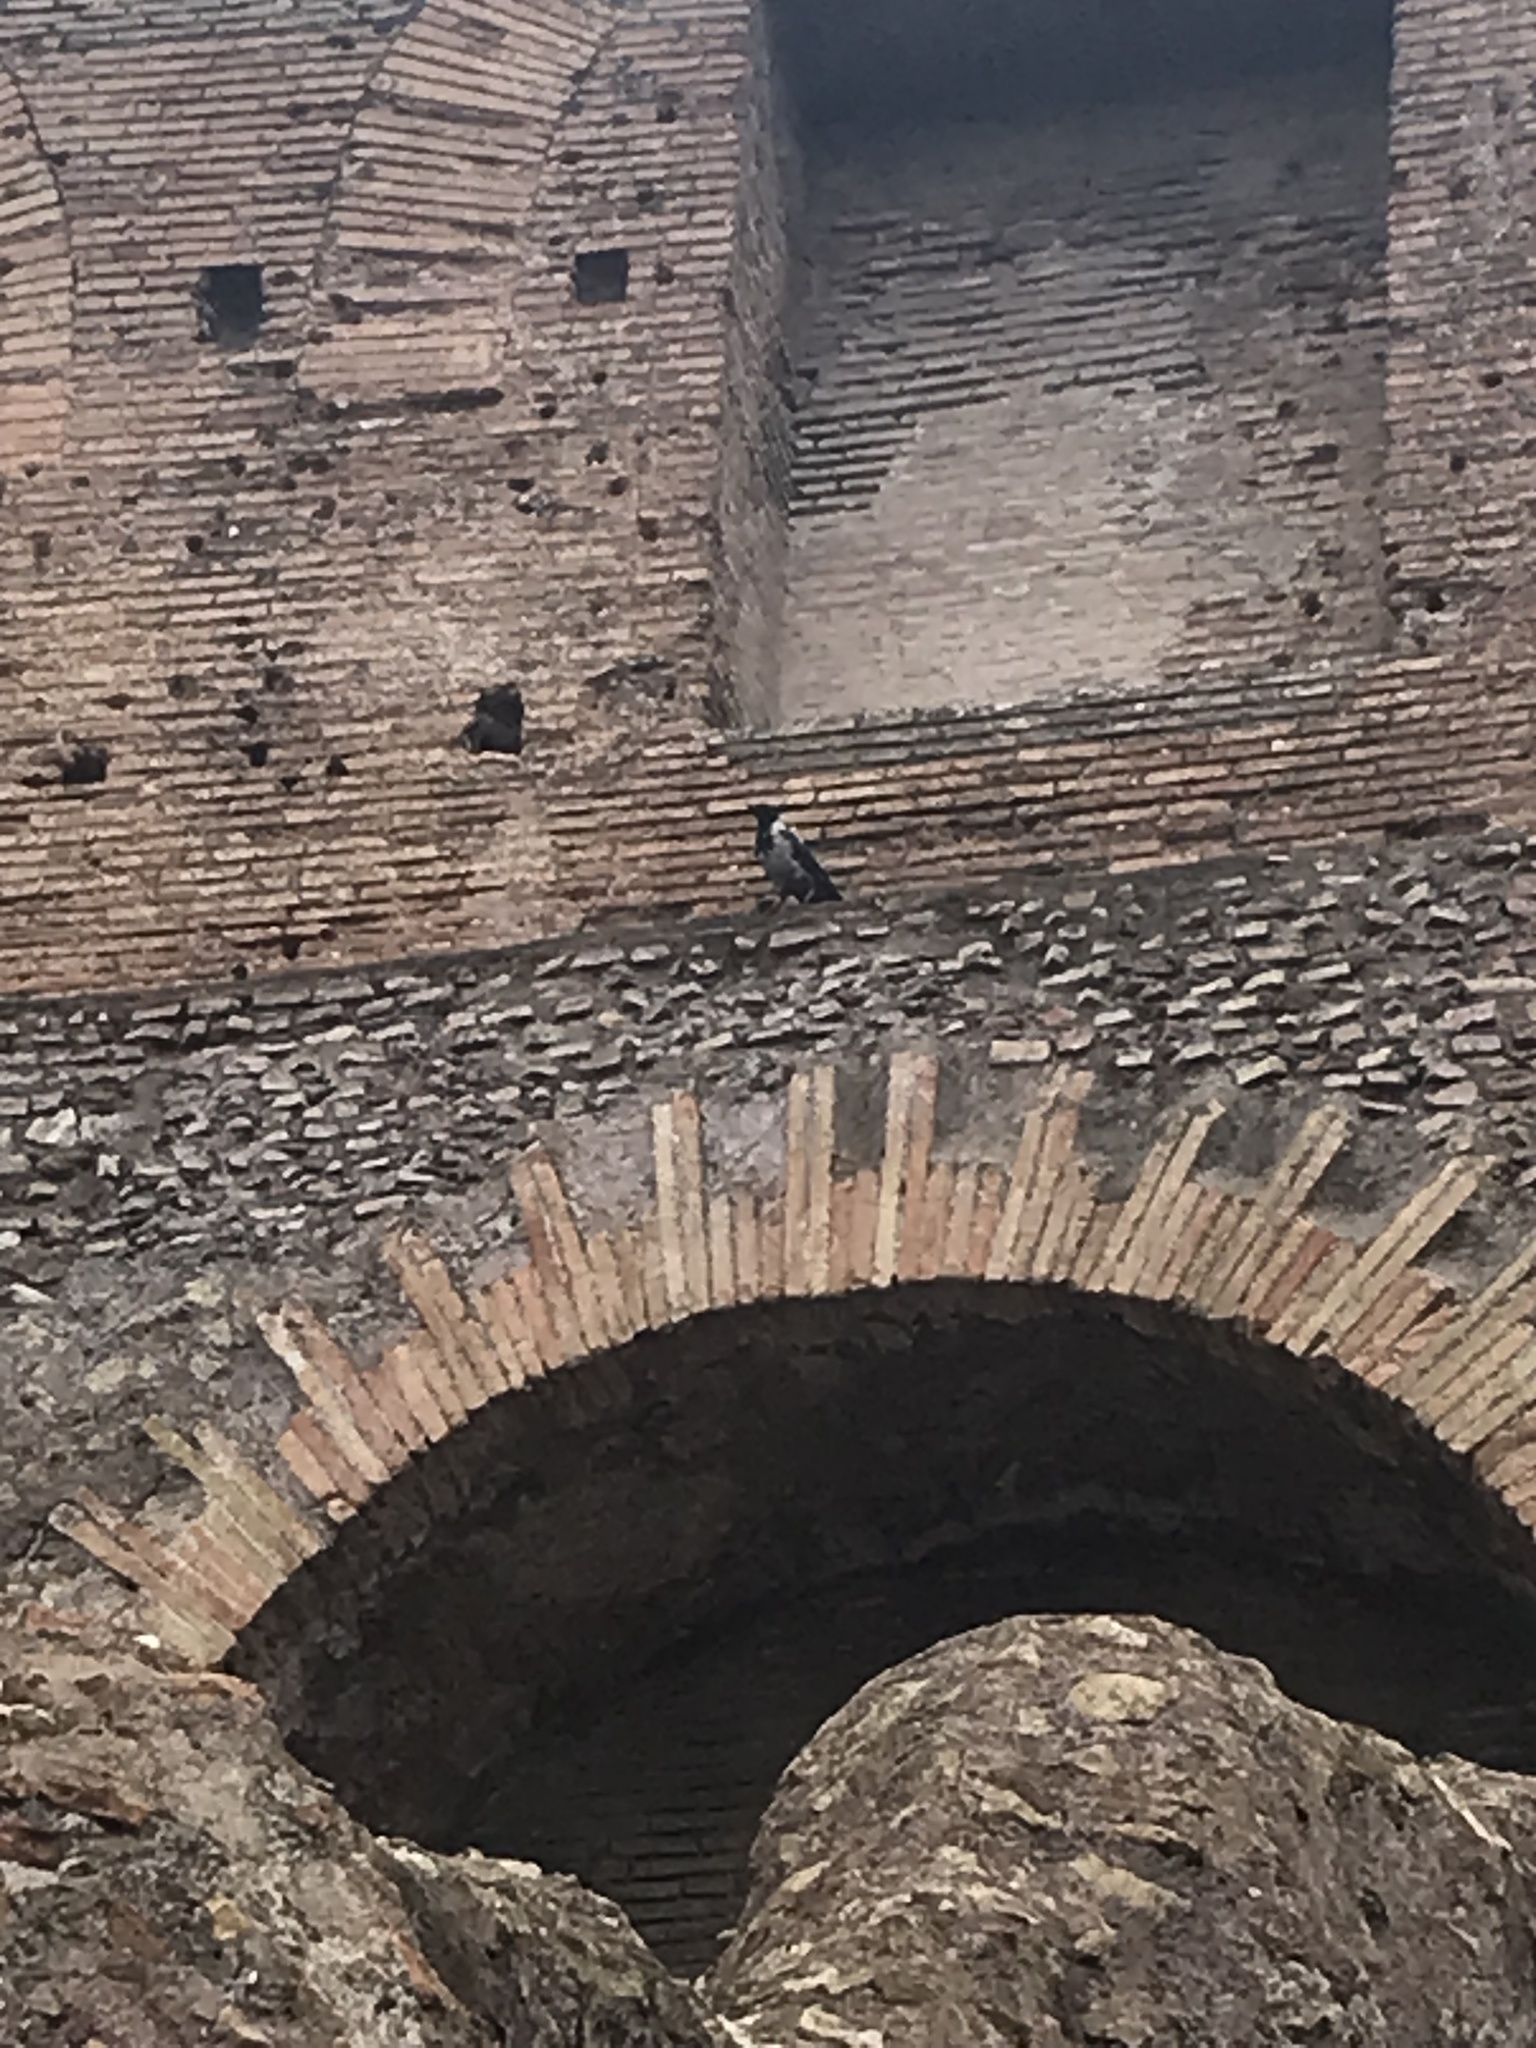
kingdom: Animalia
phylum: Chordata
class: Aves
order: Passeriformes
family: Corvidae
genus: Corvus
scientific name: Corvus cornix
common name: Hooded crow
